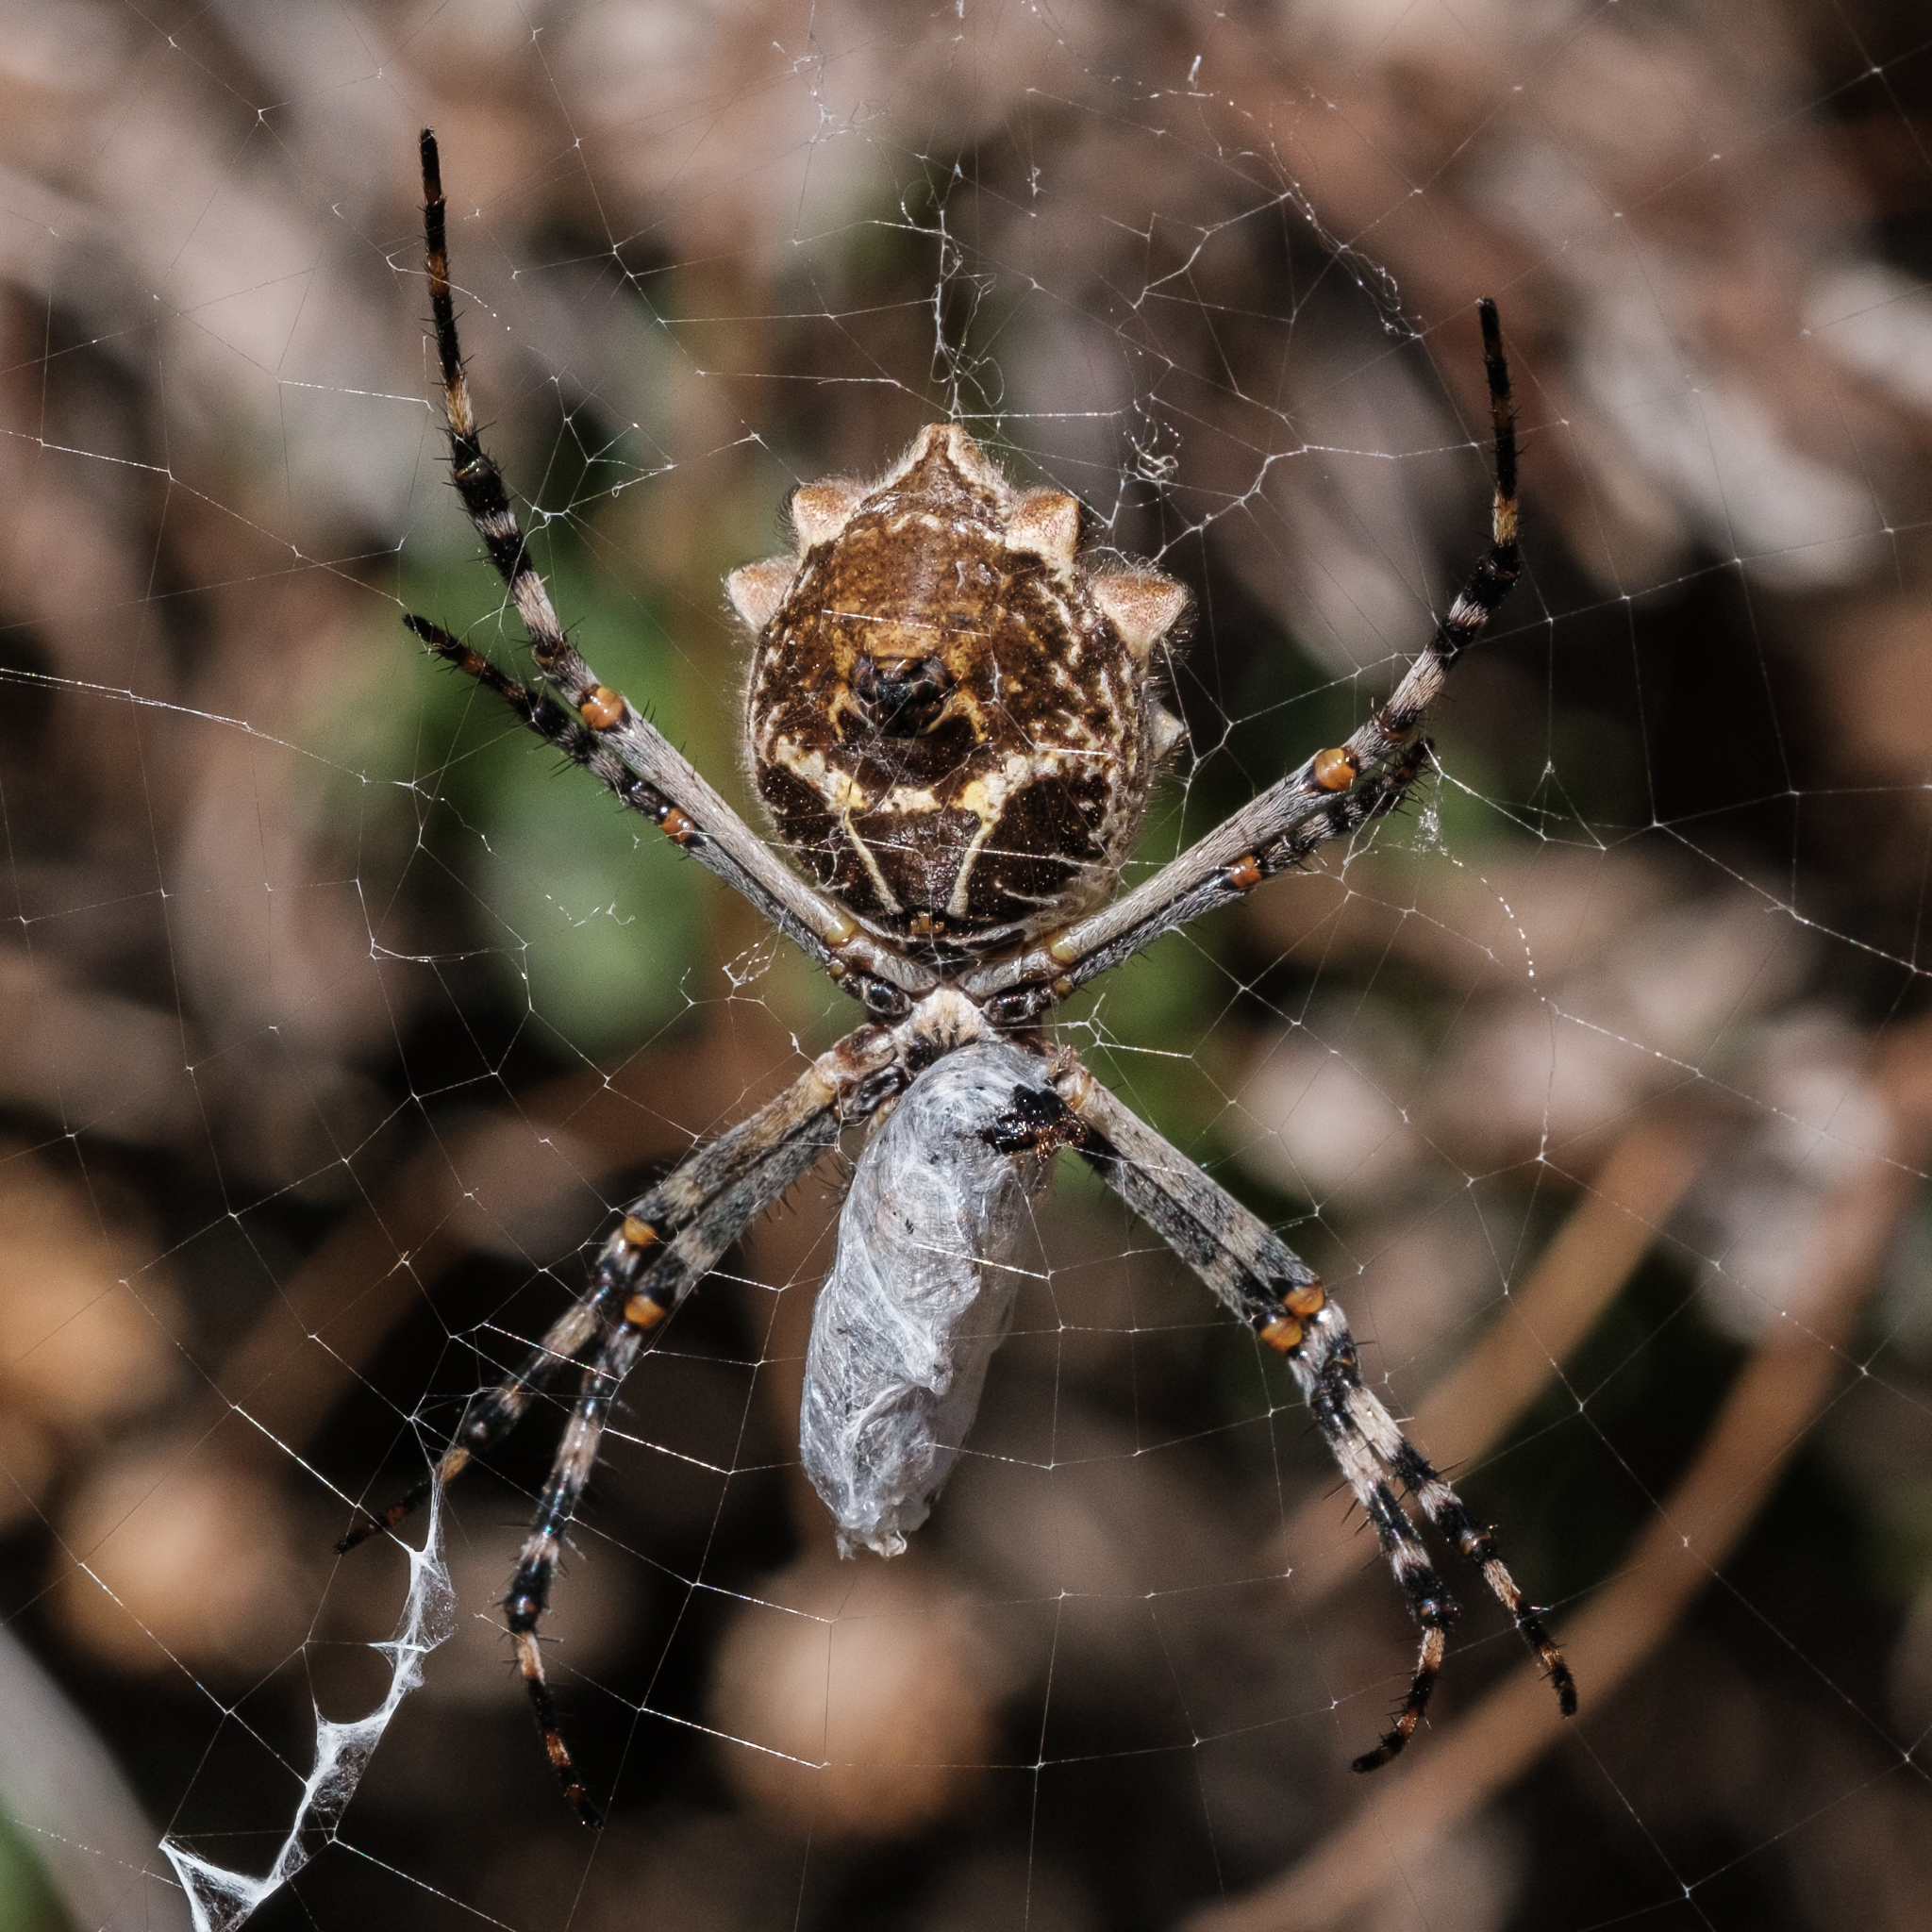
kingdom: Animalia
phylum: Arthropoda
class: Arachnida
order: Araneae
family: Araneidae
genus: Argiope
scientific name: Argiope argentata
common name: Orb weavers
